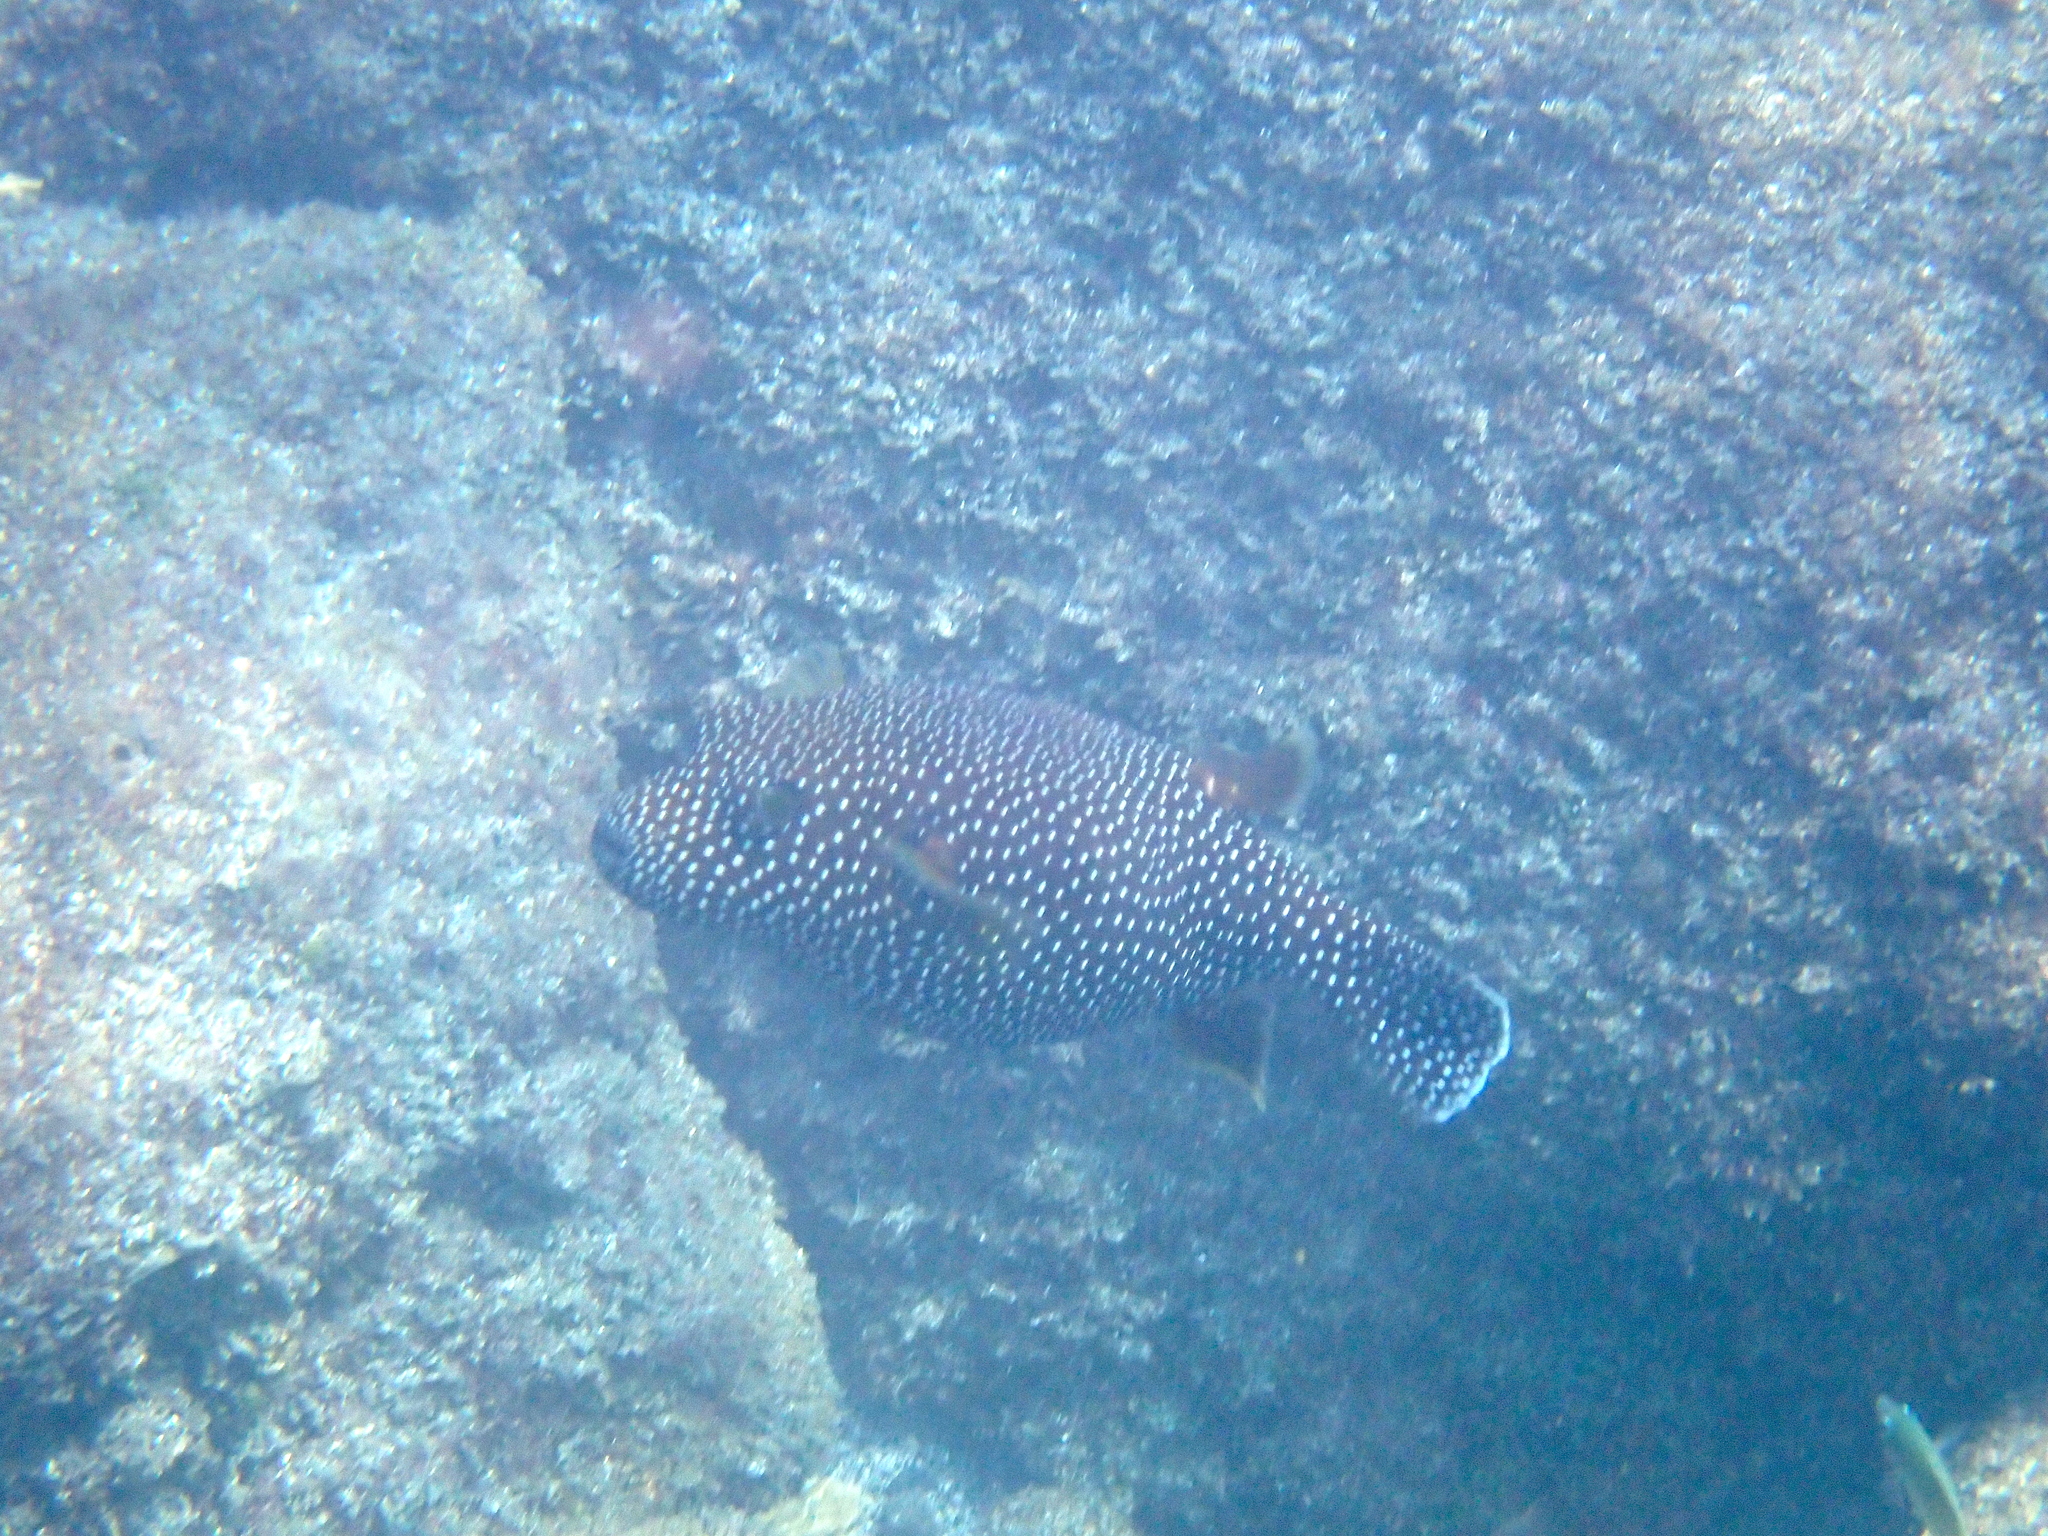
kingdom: Animalia
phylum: Chordata
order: Tetraodontiformes
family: Tetraodontidae
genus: Arothron
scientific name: Arothron meleagris
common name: Guinea-fowl pufferfish
